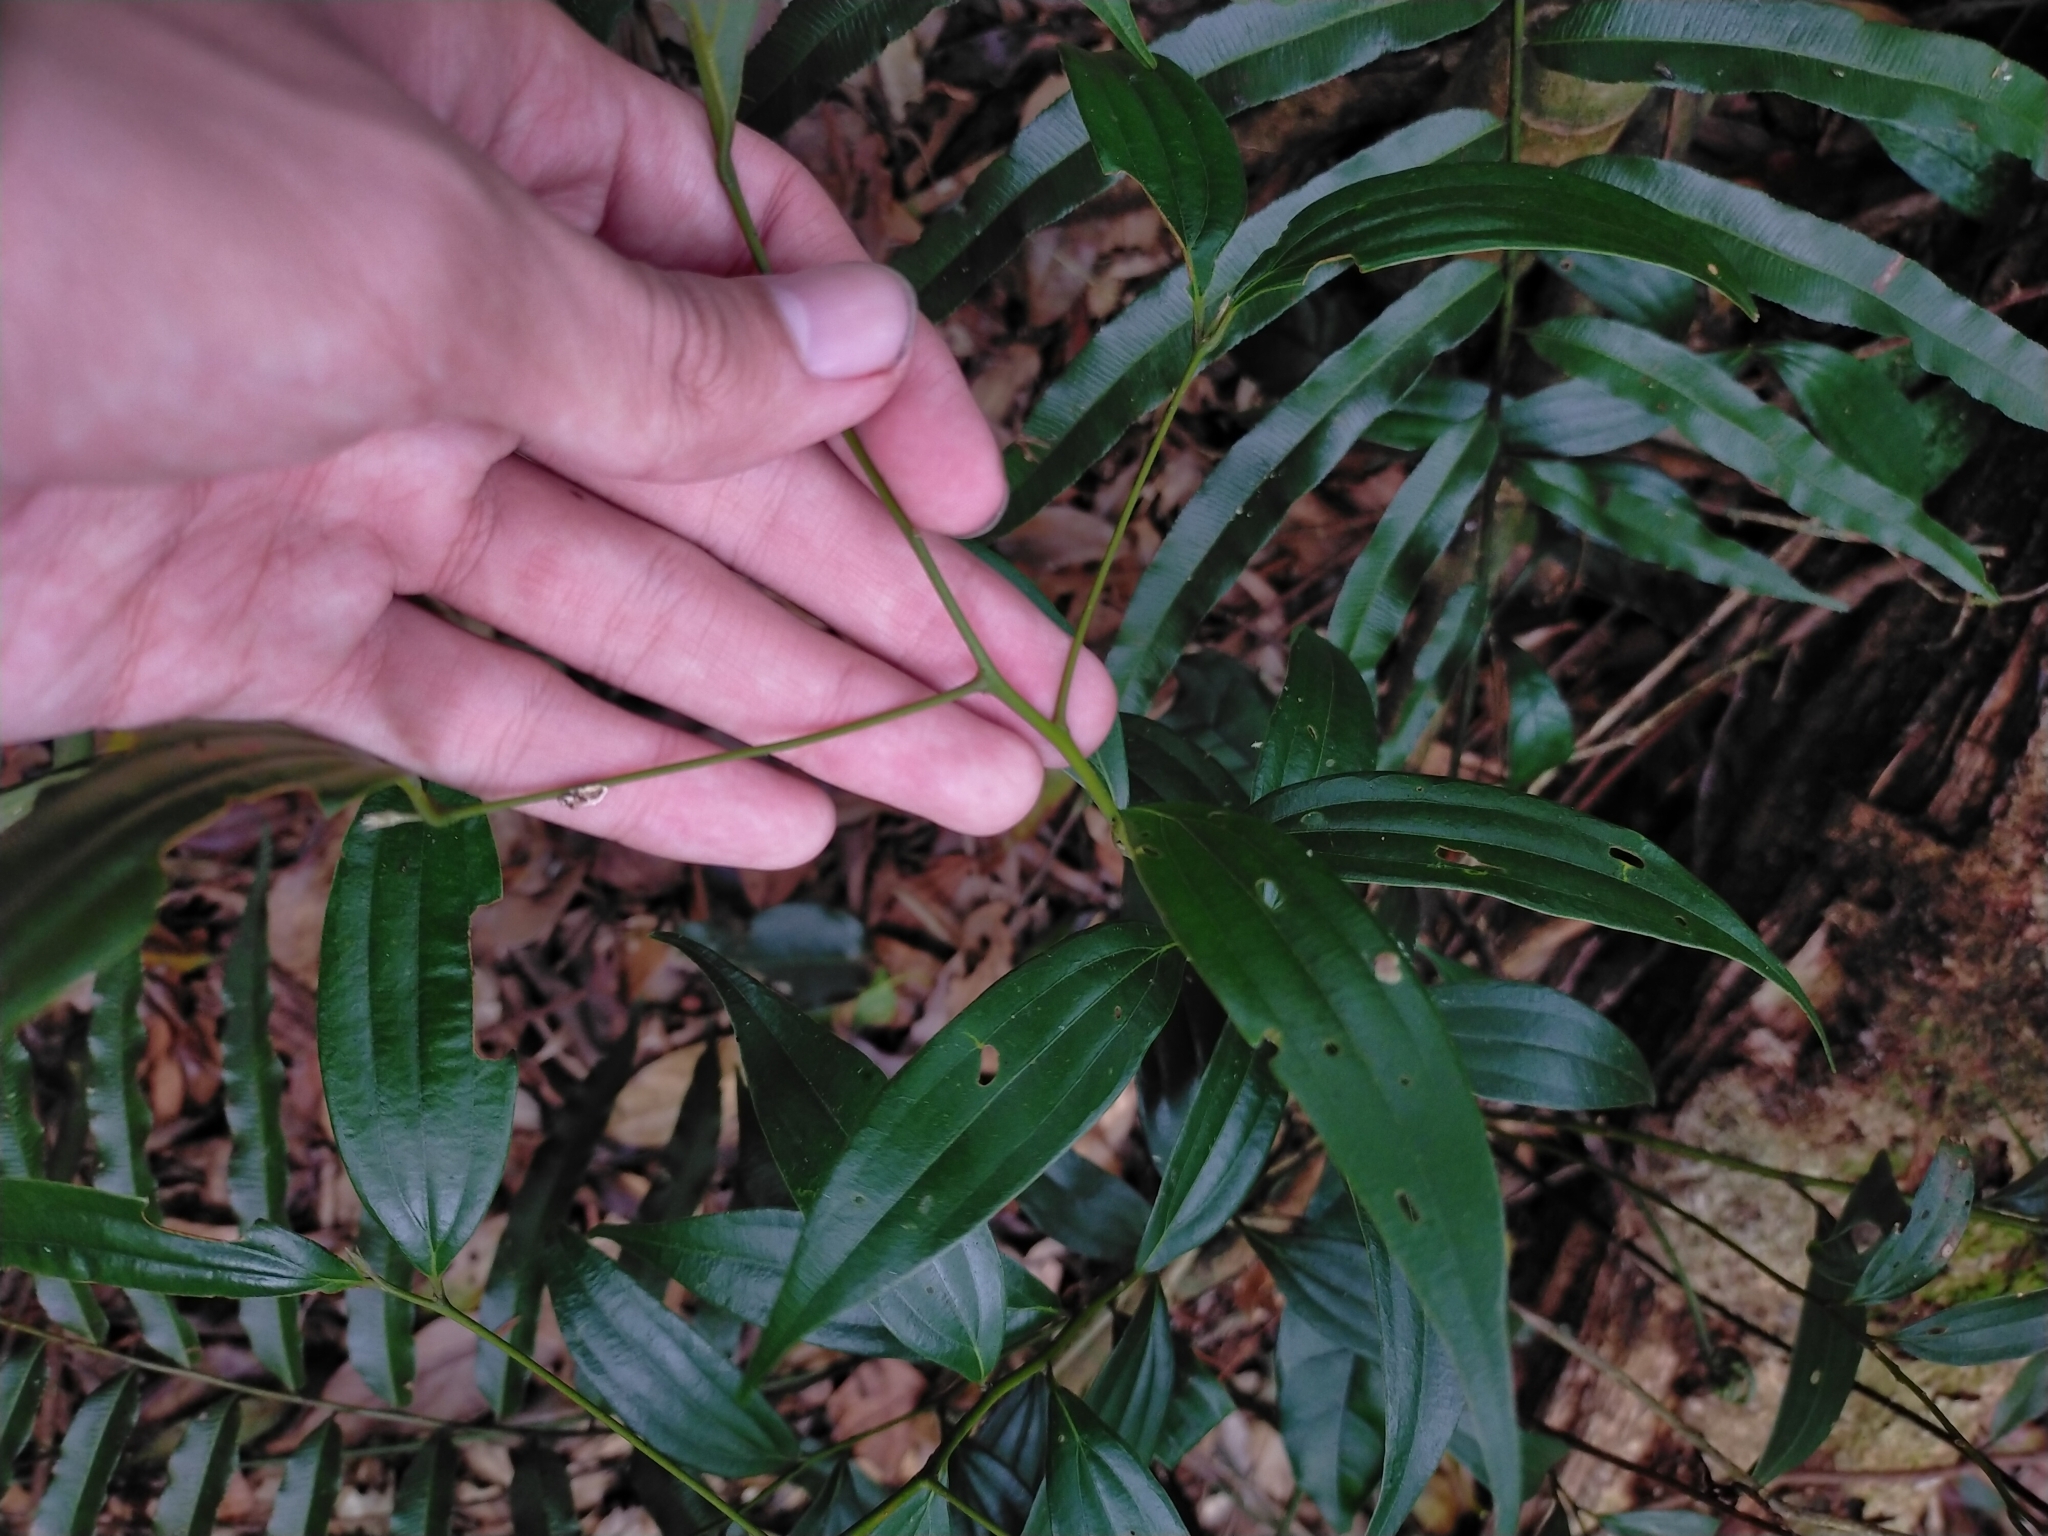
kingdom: Plantae
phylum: Tracheophyta
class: Magnoliopsida
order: Laurales
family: Lauraceae
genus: Cinnamomum
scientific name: Cinnamomum subavenium
